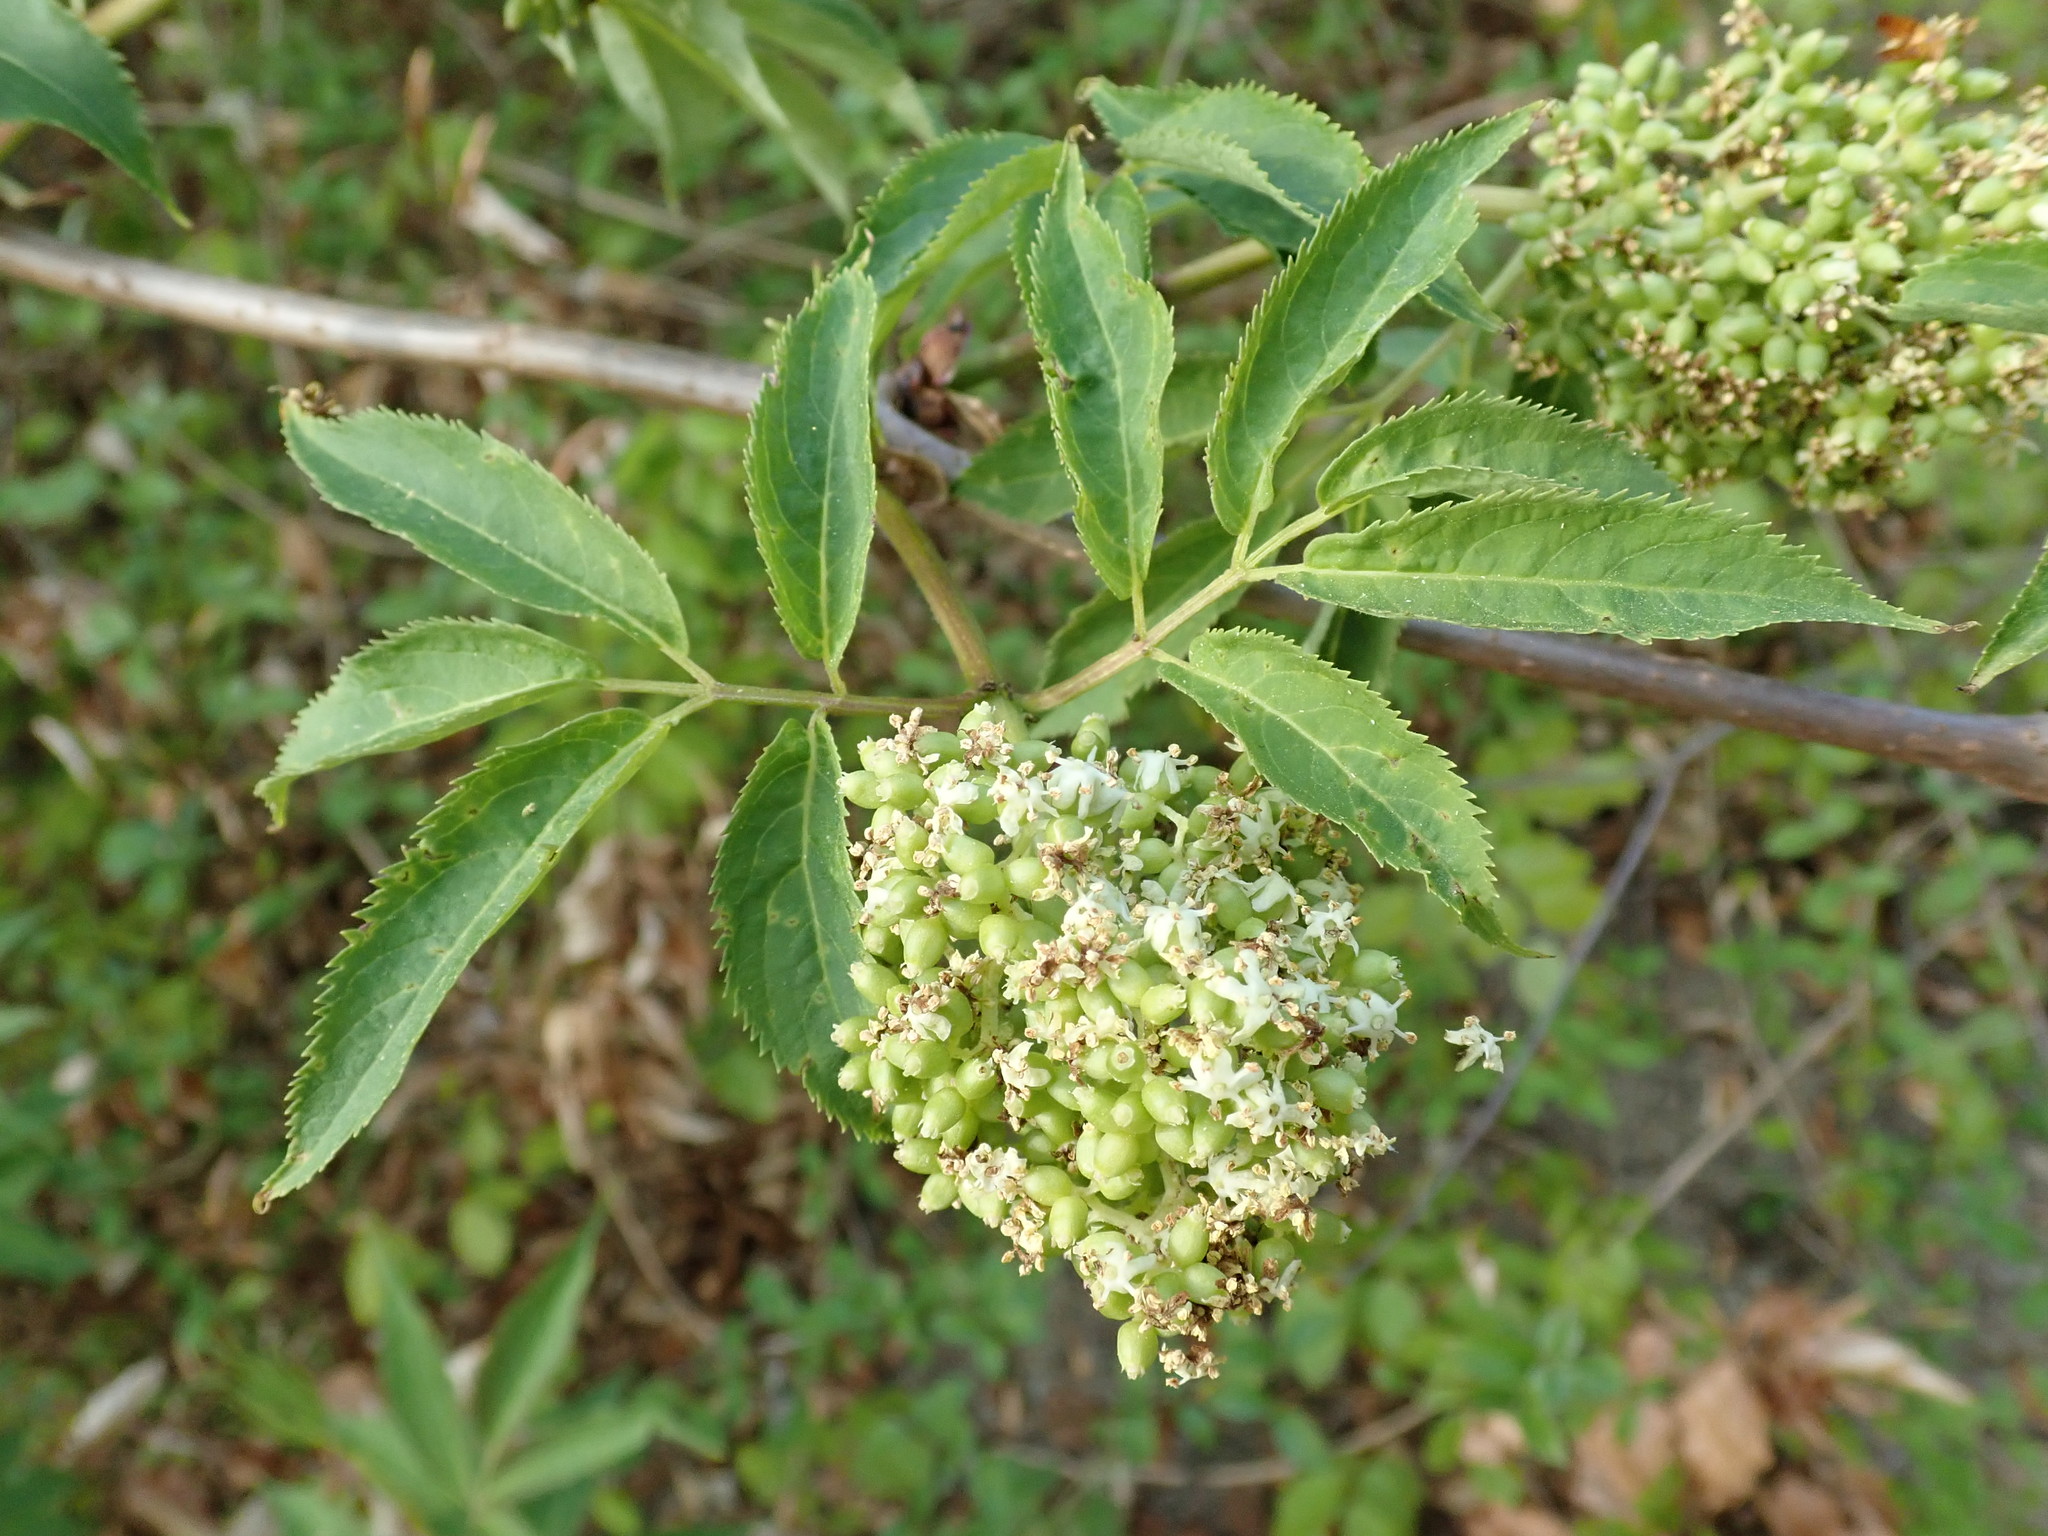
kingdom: Plantae
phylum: Tracheophyta
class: Magnoliopsida
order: Dipsacales
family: Viburnaceae
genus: Sambucus
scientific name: Sambucus racemosa
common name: Red-berried elder
